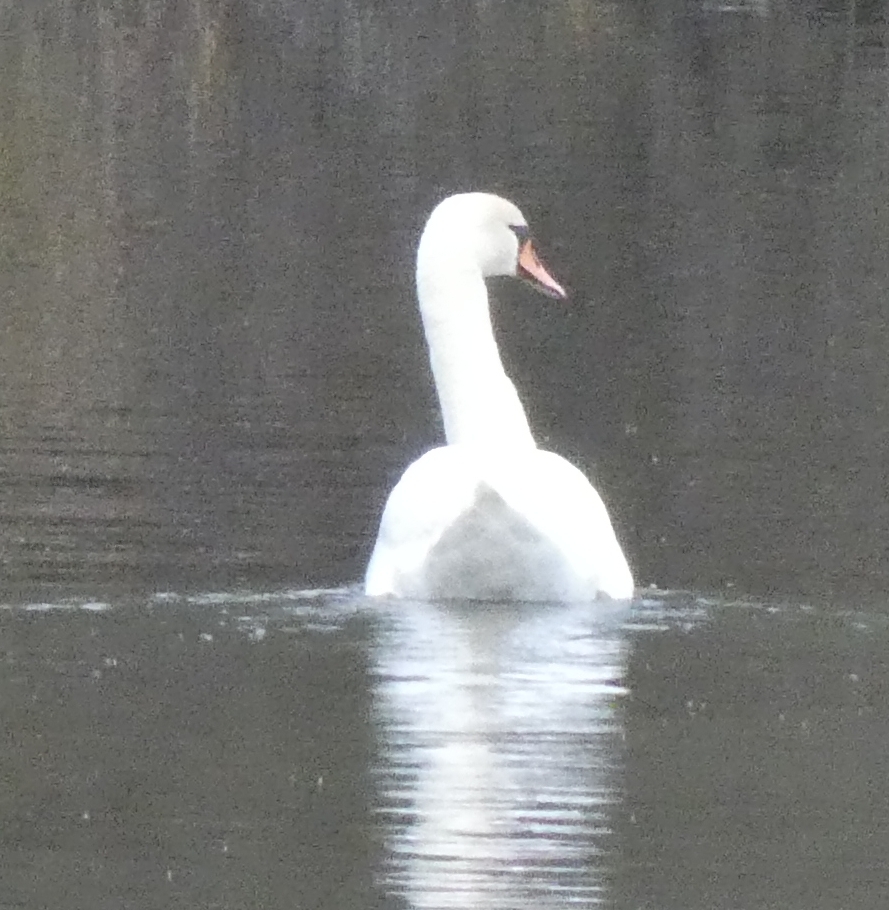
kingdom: Animalia
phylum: Chordata
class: Aves
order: Anseriformes
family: Anatidae
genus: Cygnus
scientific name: Cygnus olor
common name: Mute swan
